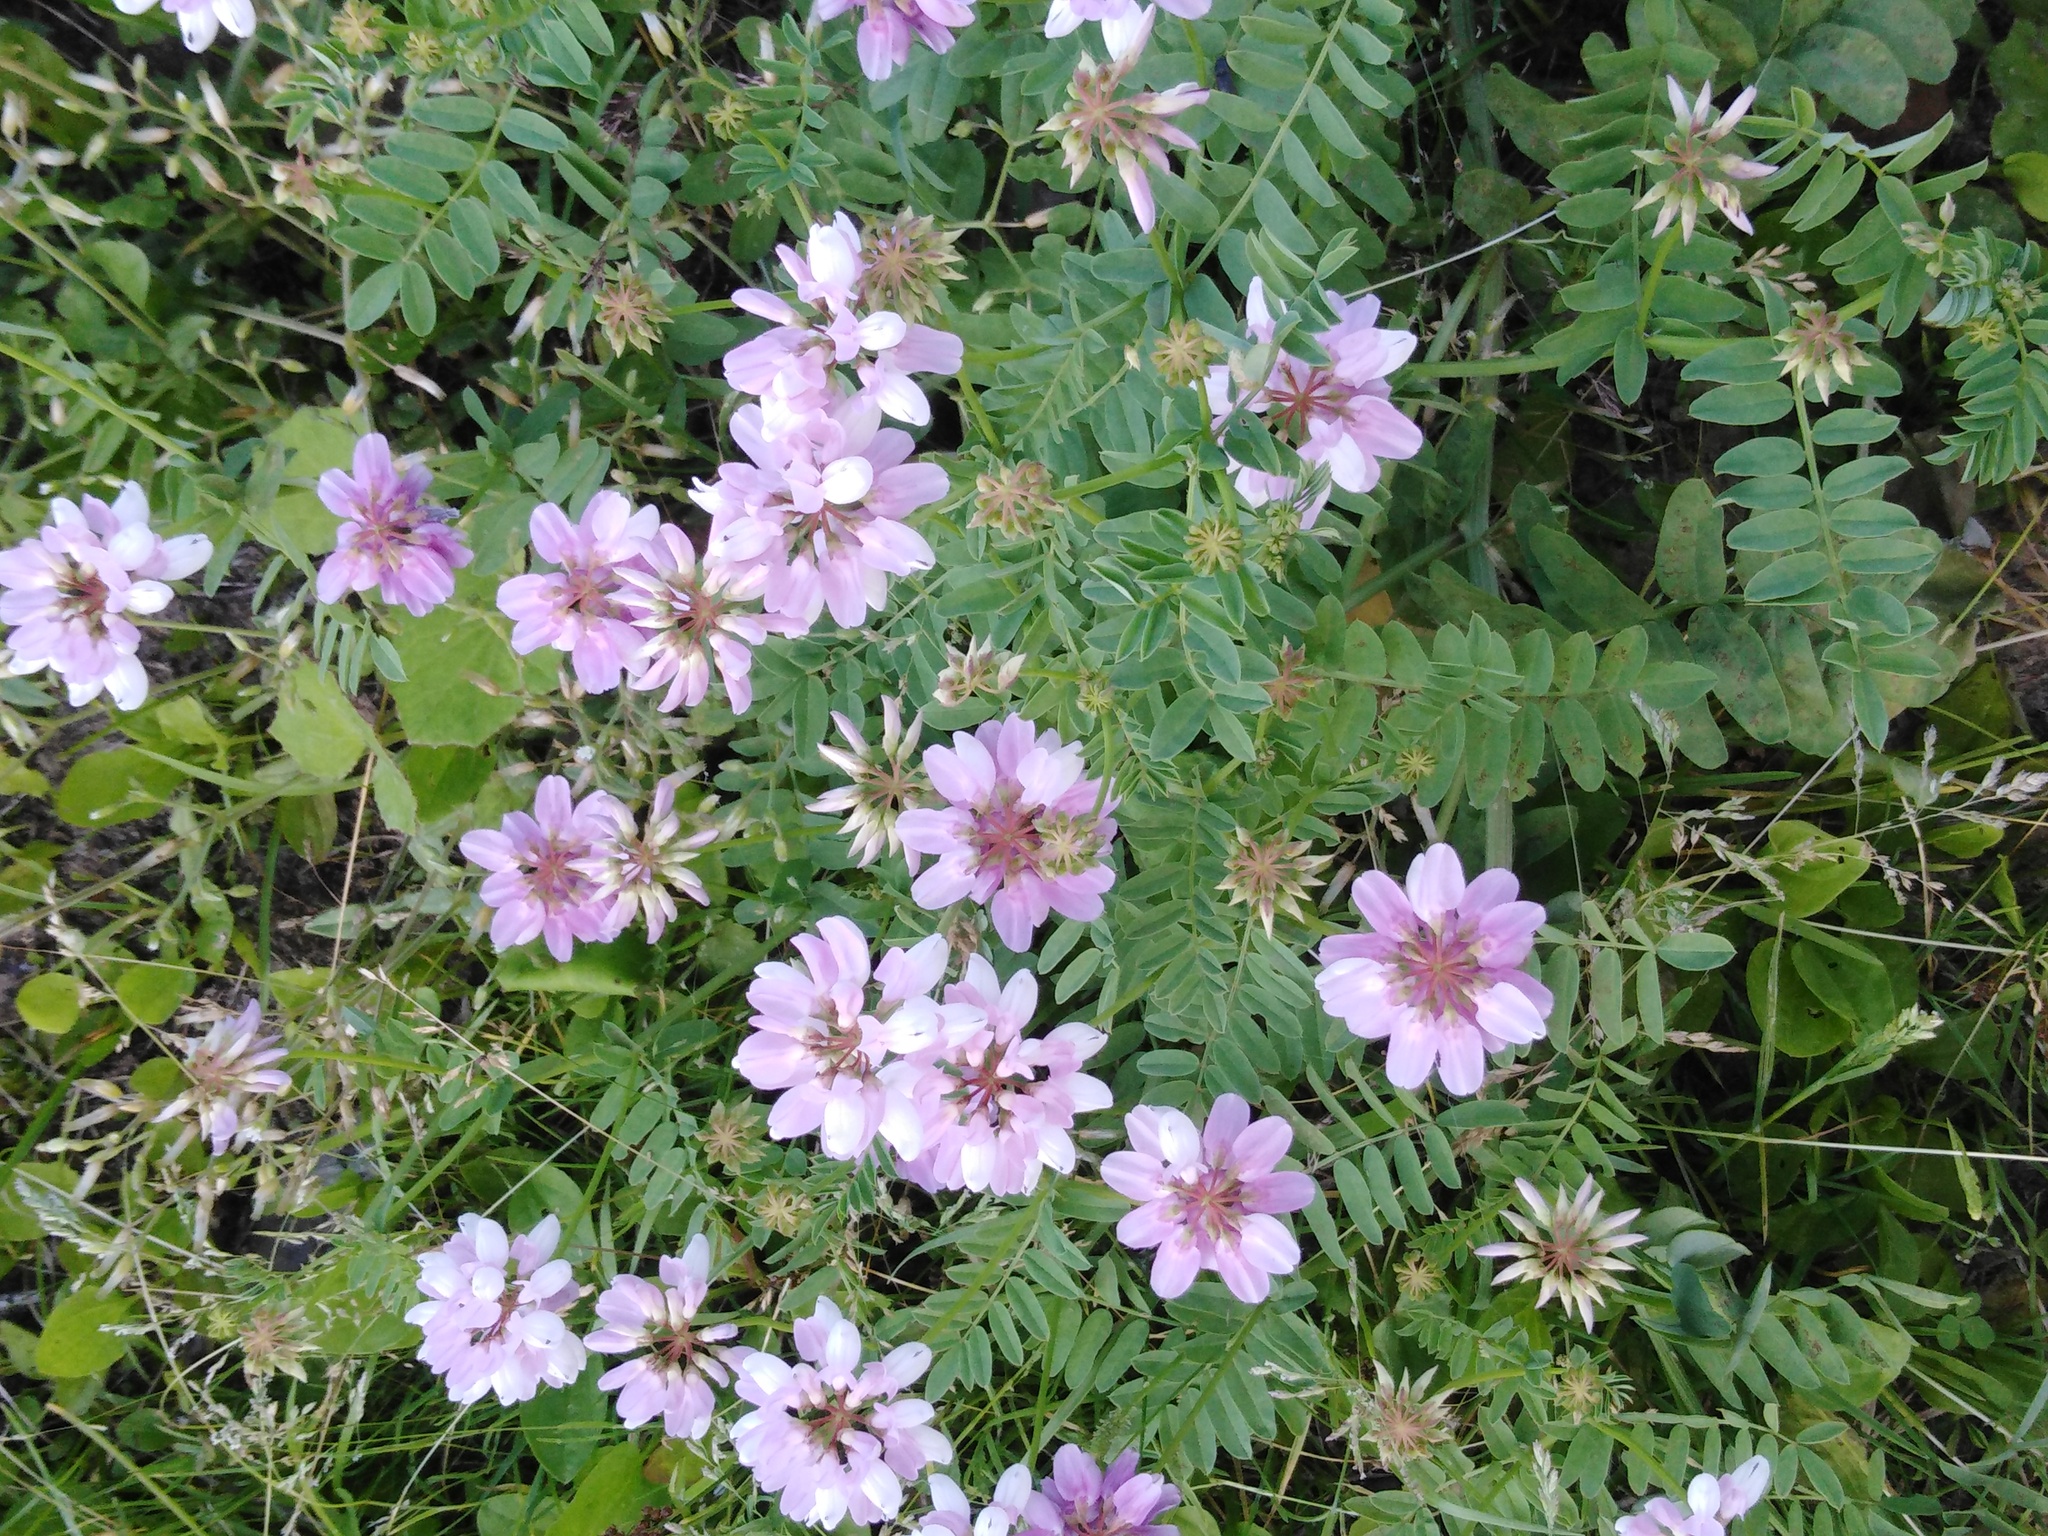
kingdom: Plantae
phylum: Tracheophyta
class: Magnoliopsida
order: Fabales
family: Fabaceae
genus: Coronilla
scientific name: Coronilla varia
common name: Crownvetch
